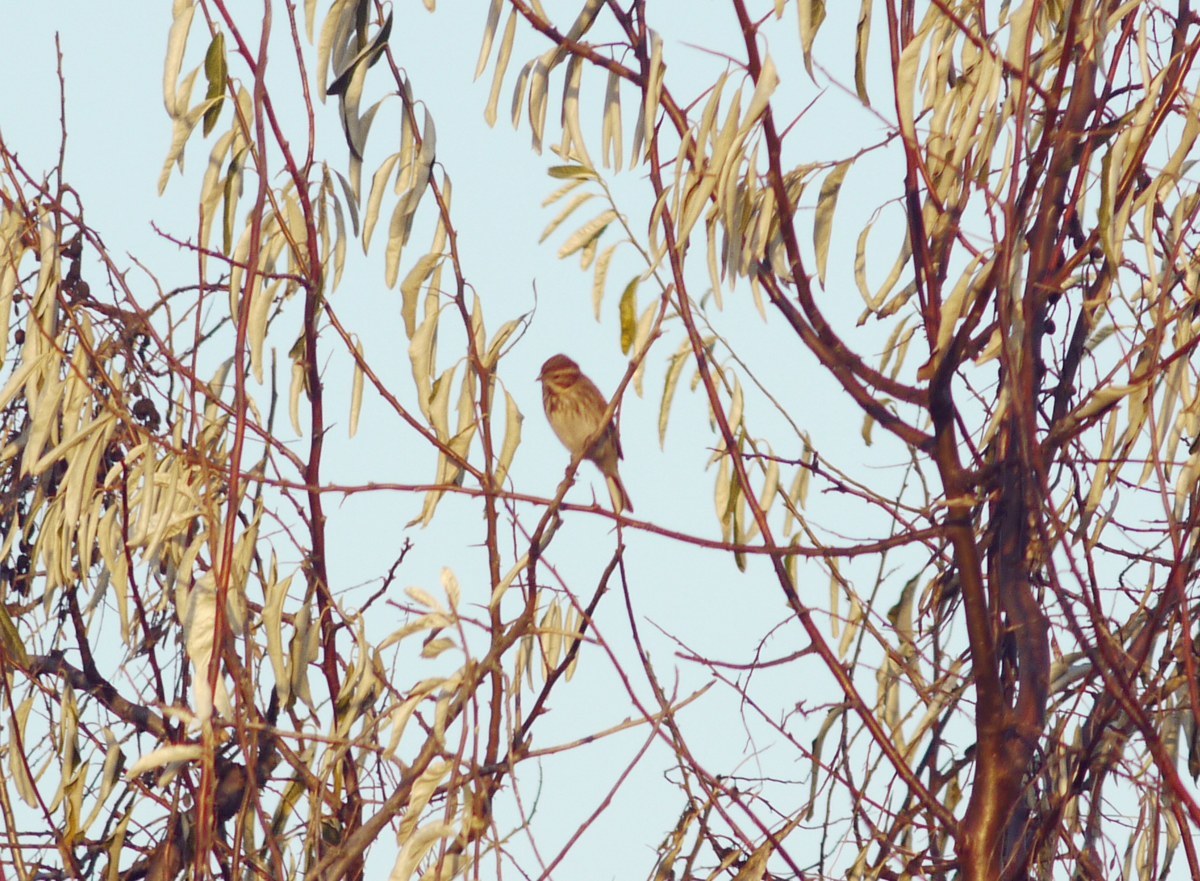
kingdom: Animalia
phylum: Chordata
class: Aves
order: Passeriformes
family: Emberizidae
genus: Emberiza
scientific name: Emberiza schoeniclus
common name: Reed bunting
